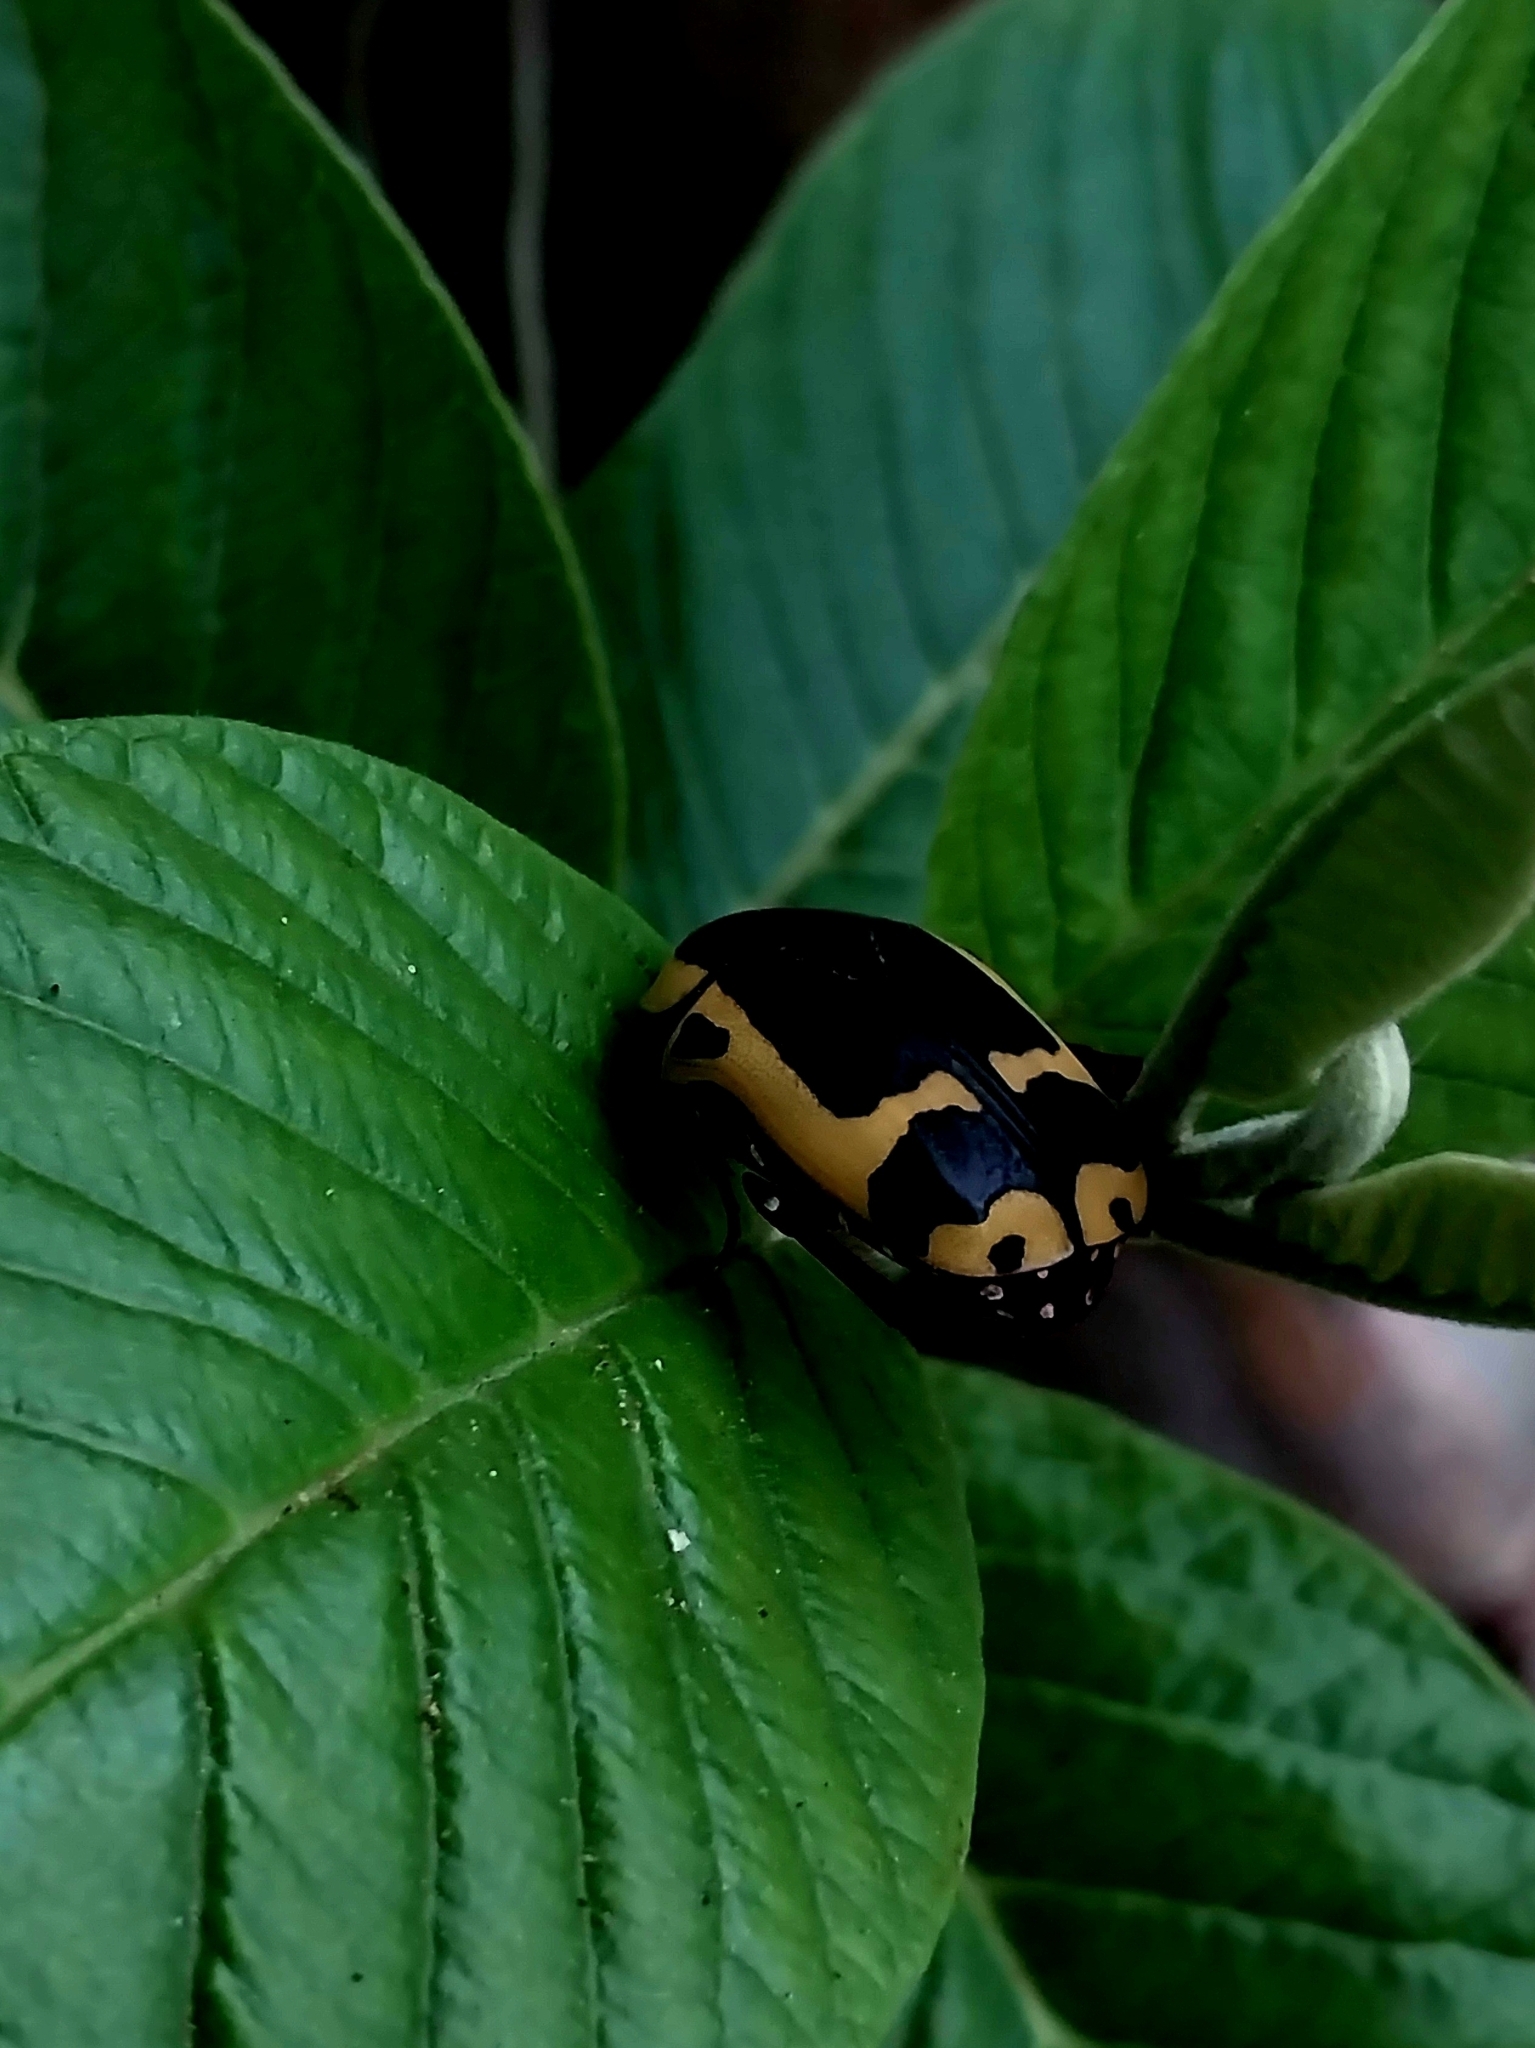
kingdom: Animalia
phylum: Arthropoda
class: Insecta
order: Coleoptera
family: Scarabaeidae
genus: Pachnoda
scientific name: Pachnoda sinuata
